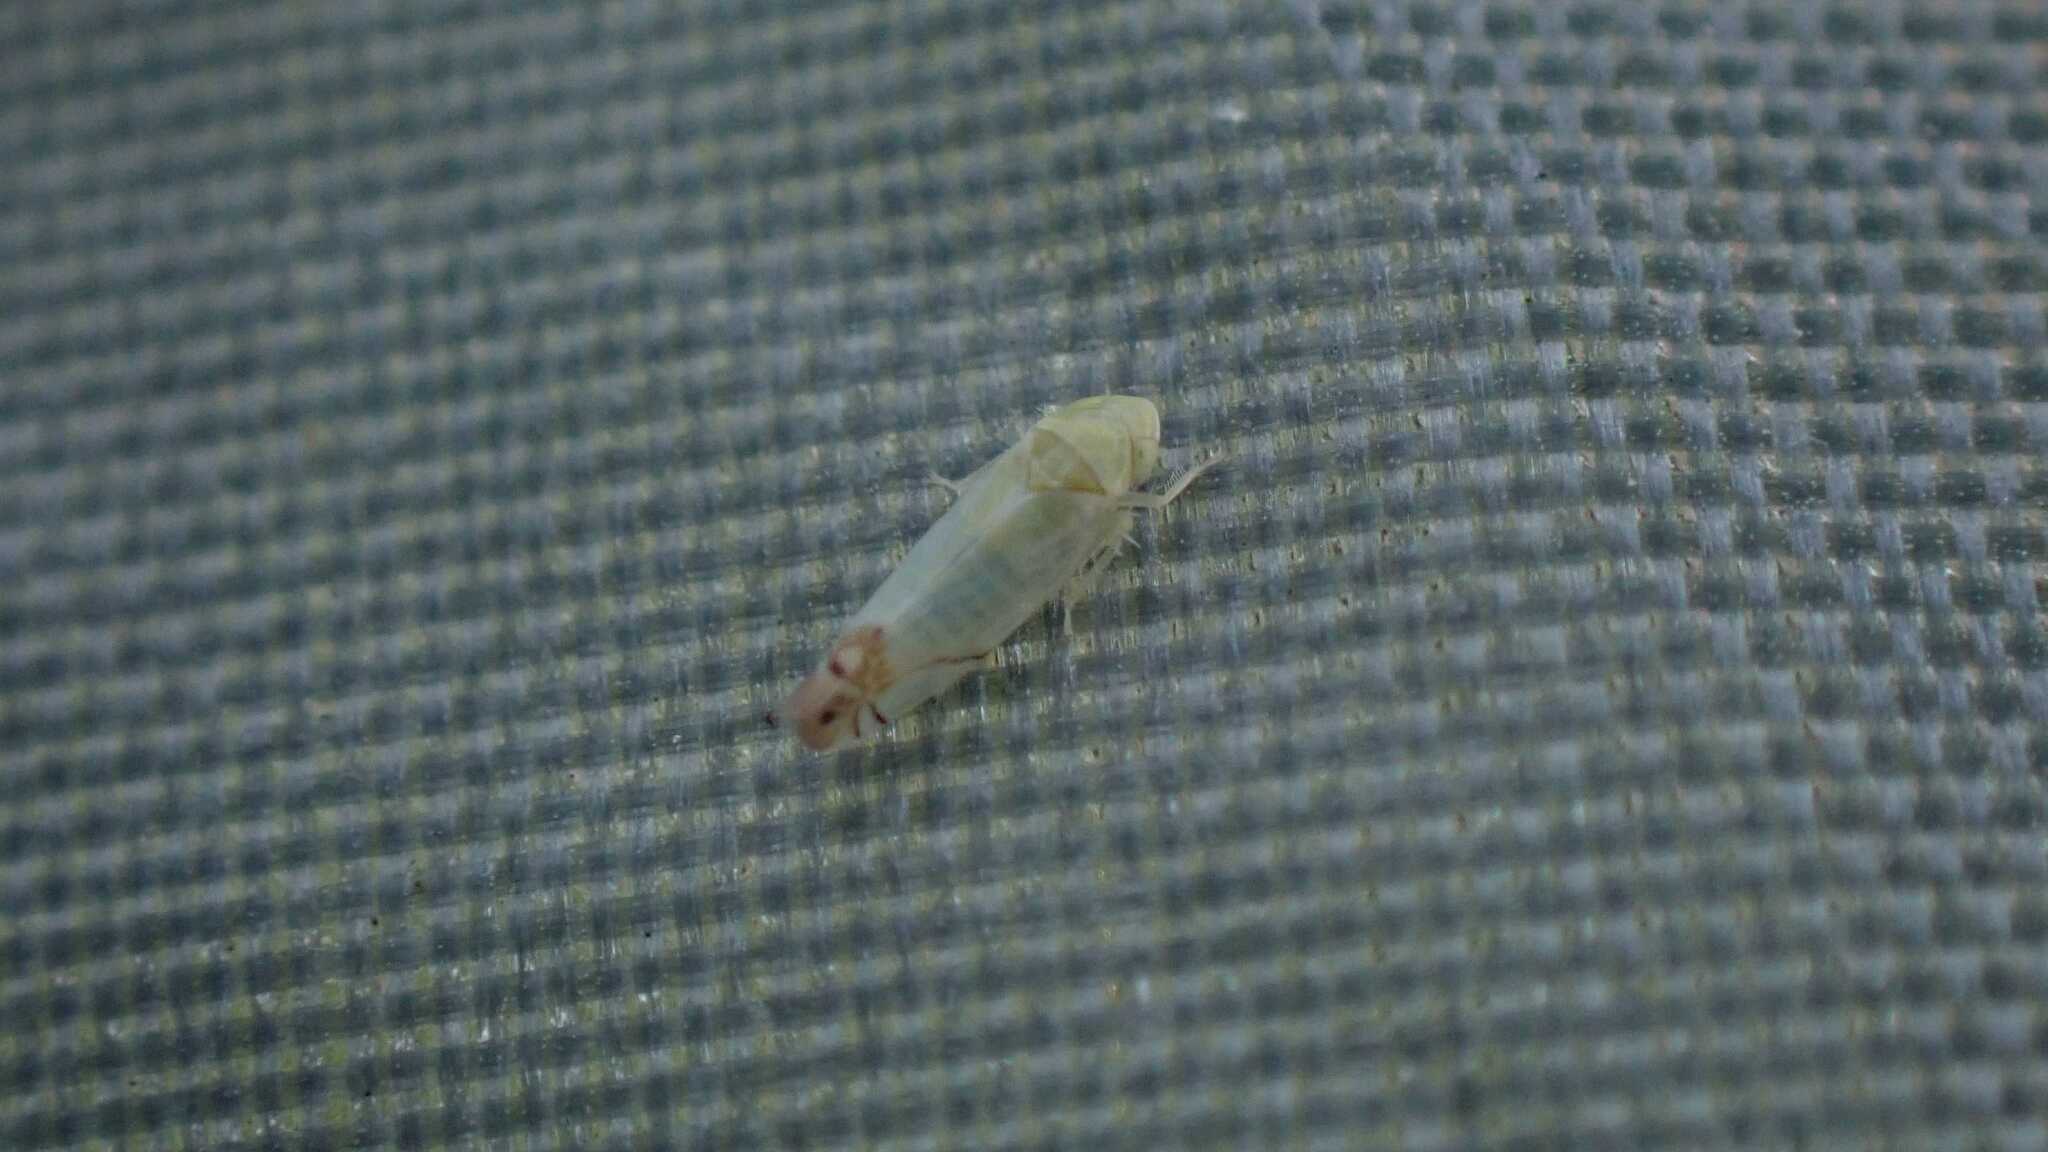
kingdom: Animalia
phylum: Arthropoda
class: Insecta
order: Hemiptera
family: Cicadellidae
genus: Zyginella
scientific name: Zyginella pulchra
